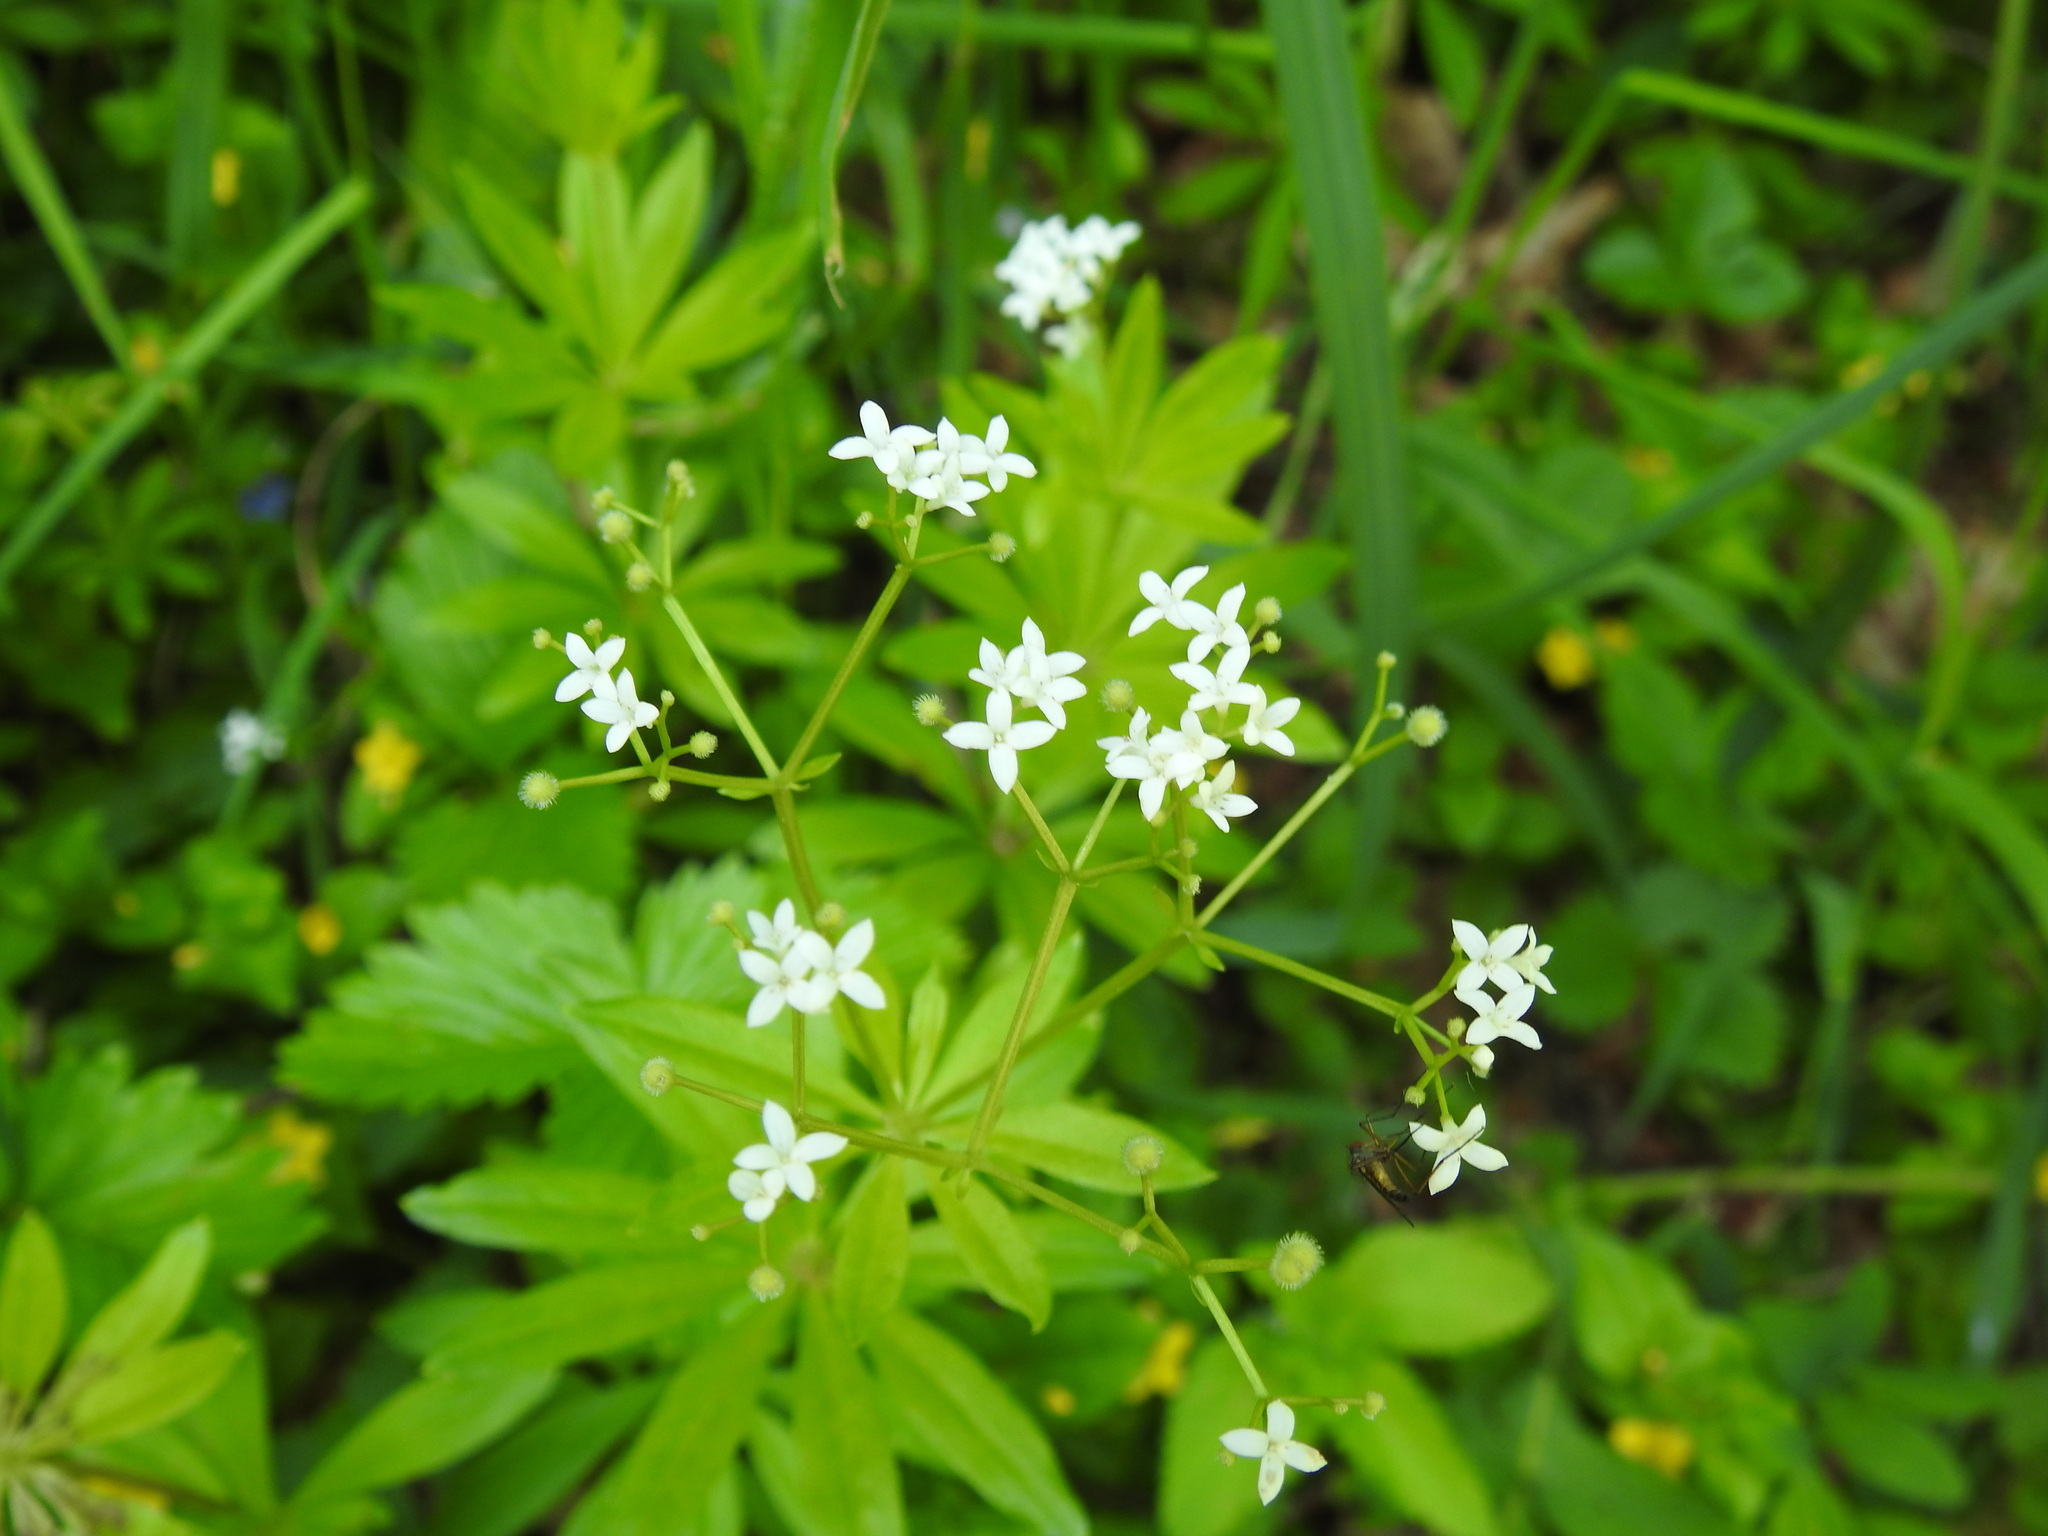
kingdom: Plantae
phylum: Tracheophyta
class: Magnoliopsida
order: Gentianales
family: Rubiaceae
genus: Galium
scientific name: Galium odoratum
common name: Sweet woodruff
